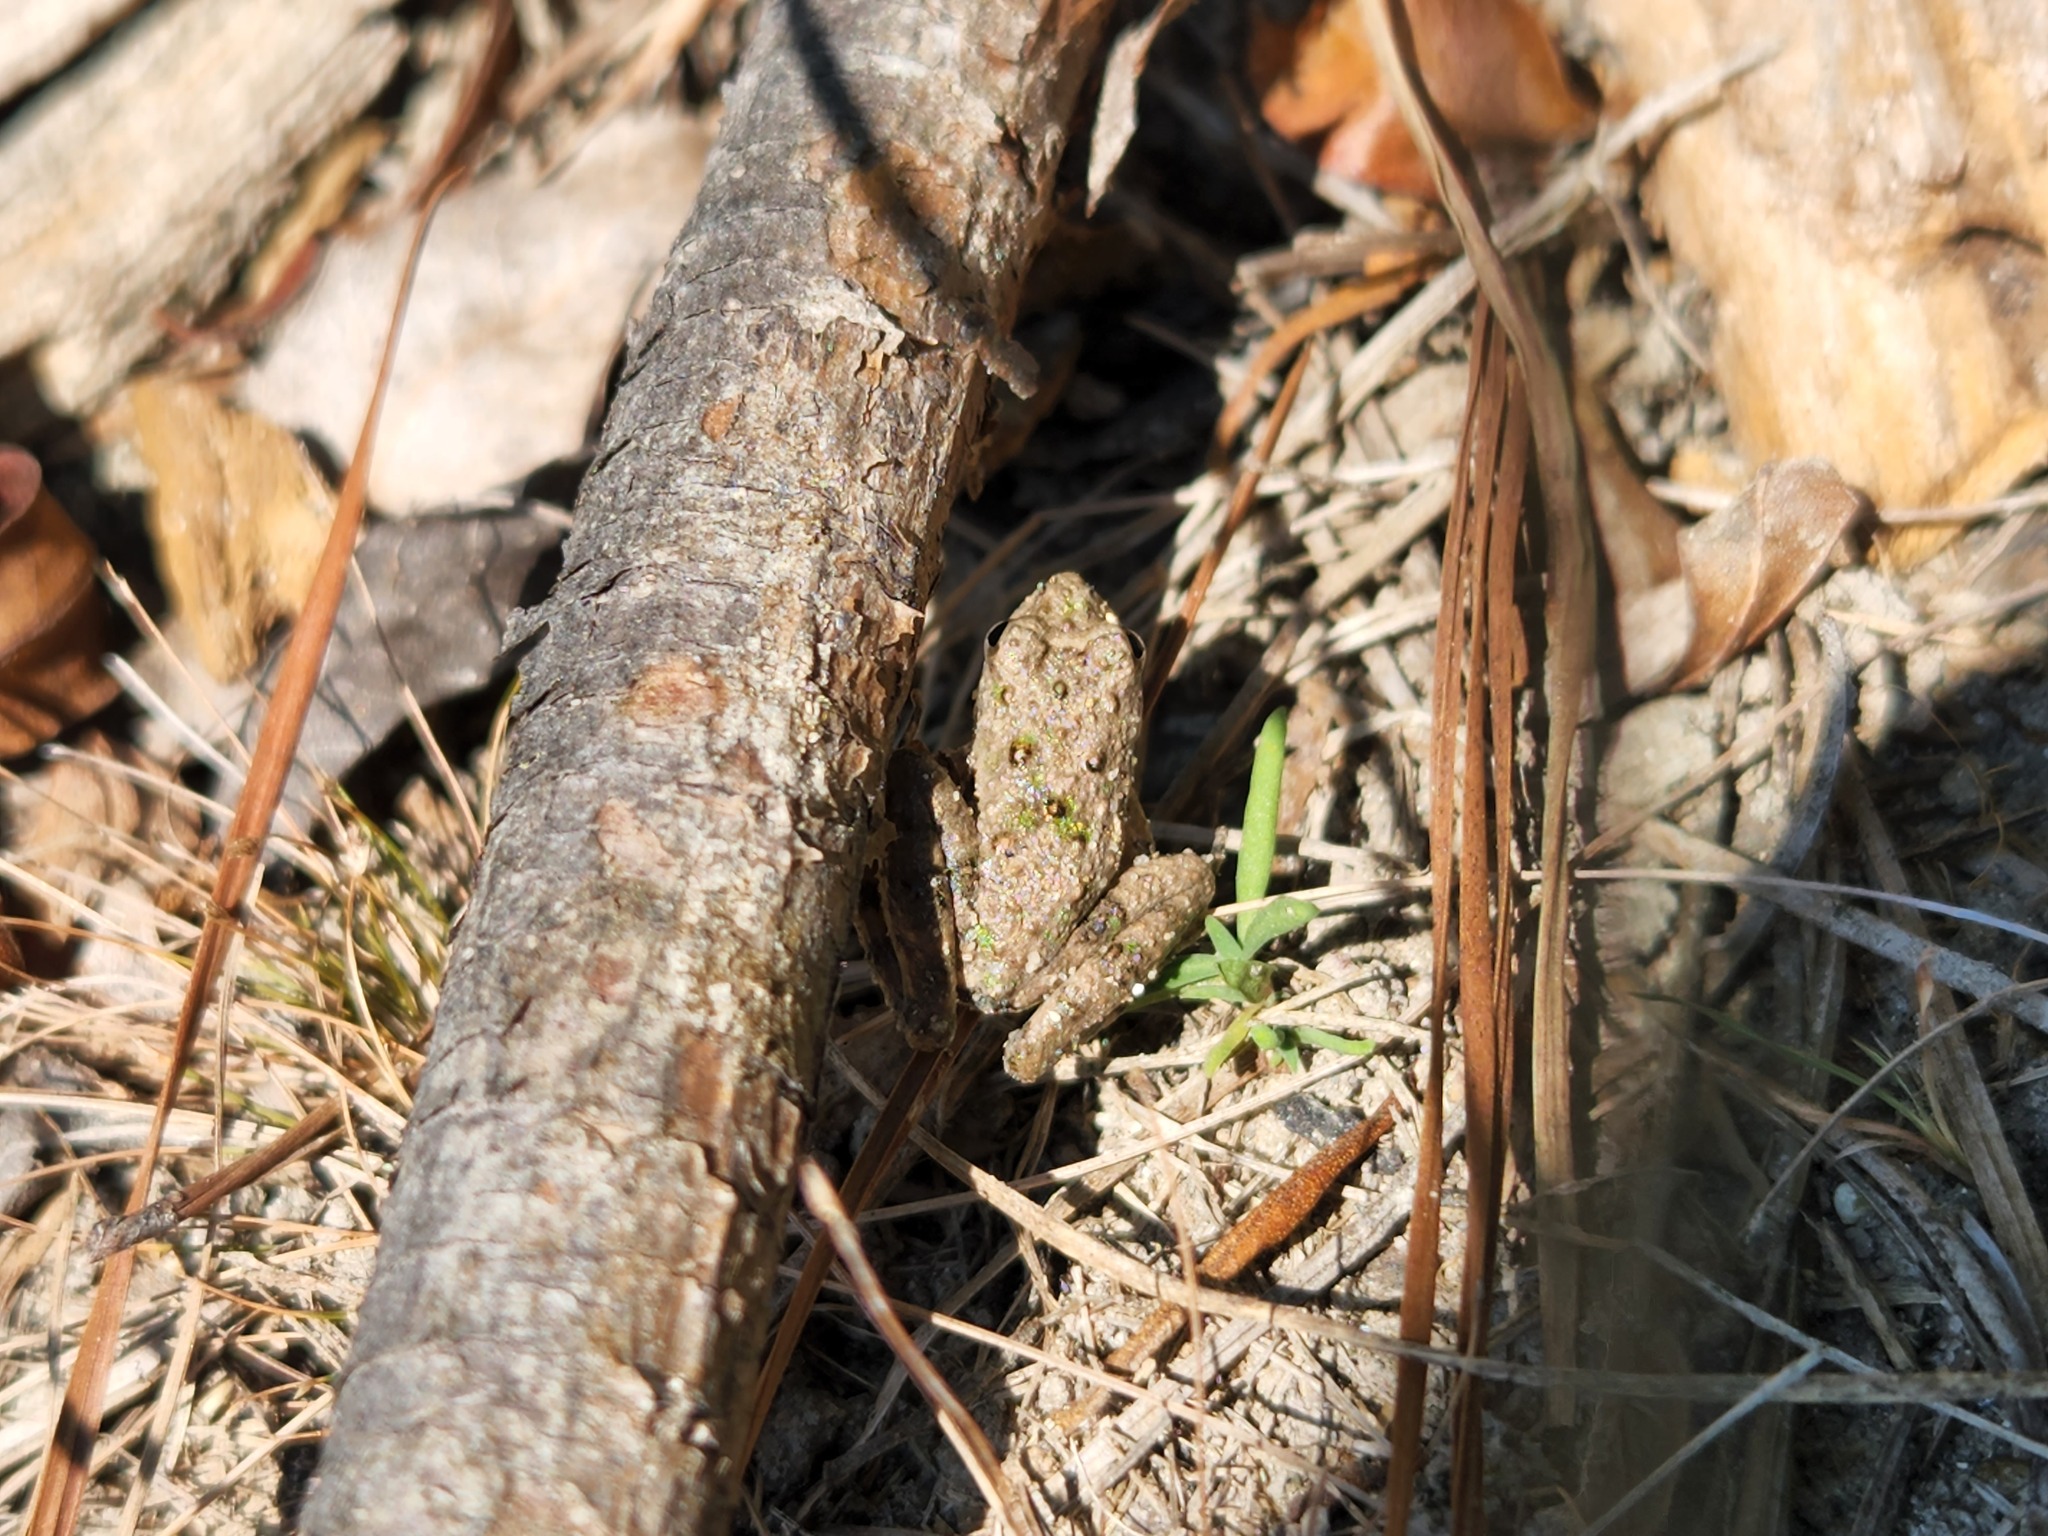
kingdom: Animalia
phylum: Chordata
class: Amphibia
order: Anura
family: Hylidae
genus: Acris
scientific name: Acris blanchardi
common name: Blanchard's cricket frog
